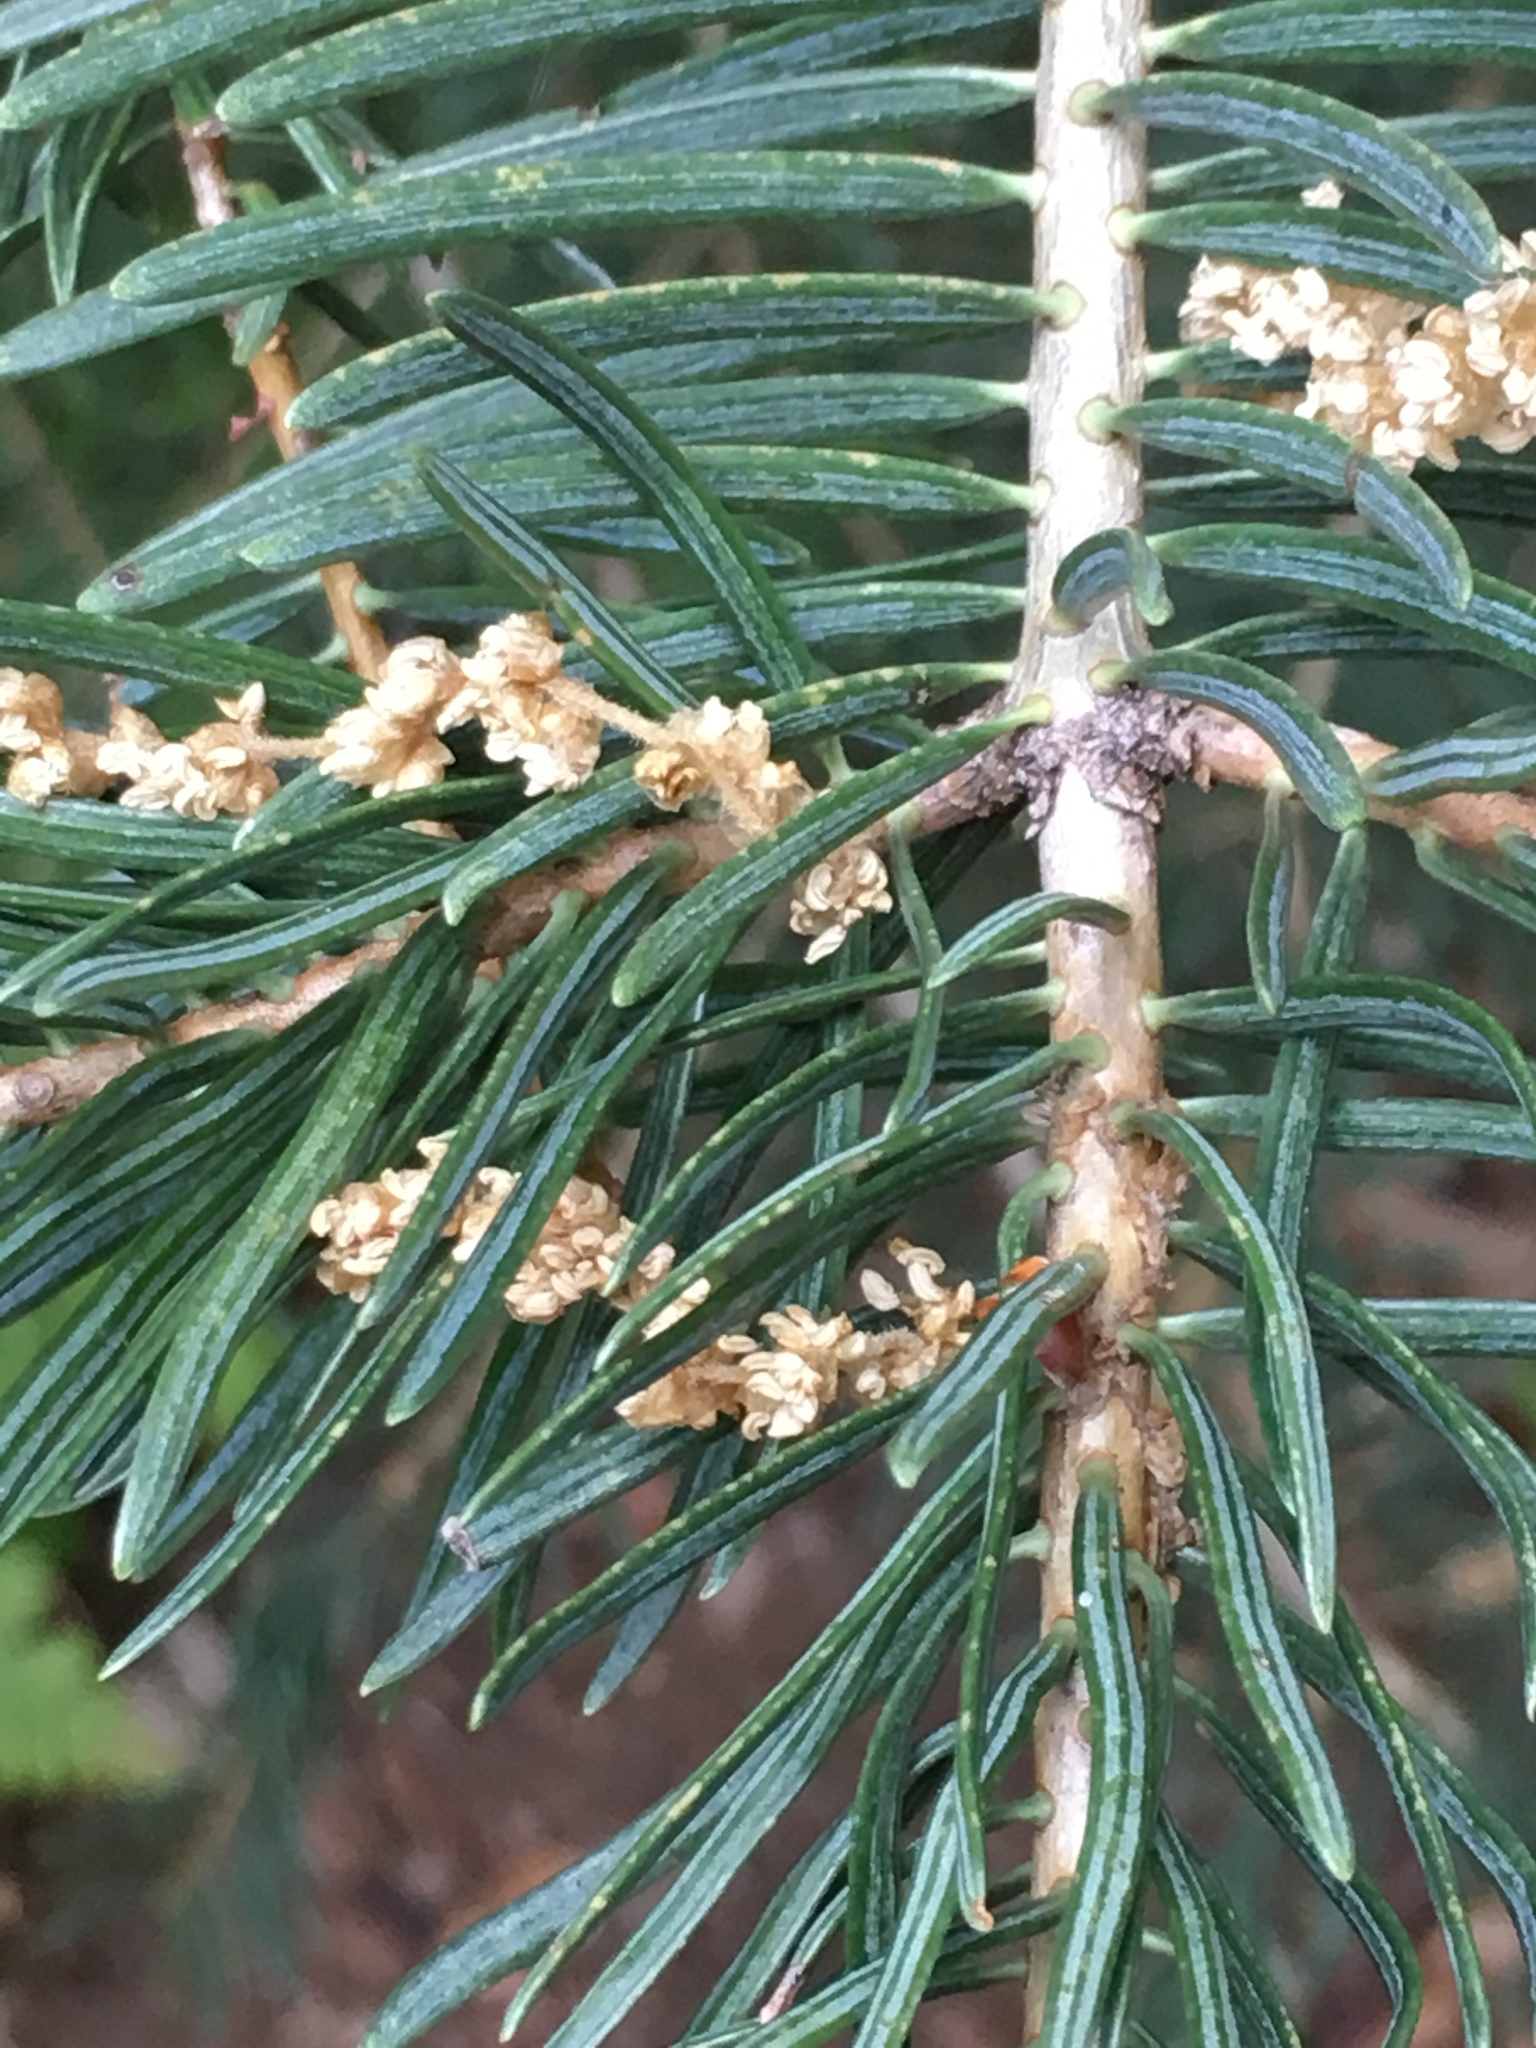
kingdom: Plantae
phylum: Tracheophyta
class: Pinopsida
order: Pinales
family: Pinaceae
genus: Abies
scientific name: Abies concolor
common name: Colorado fir
